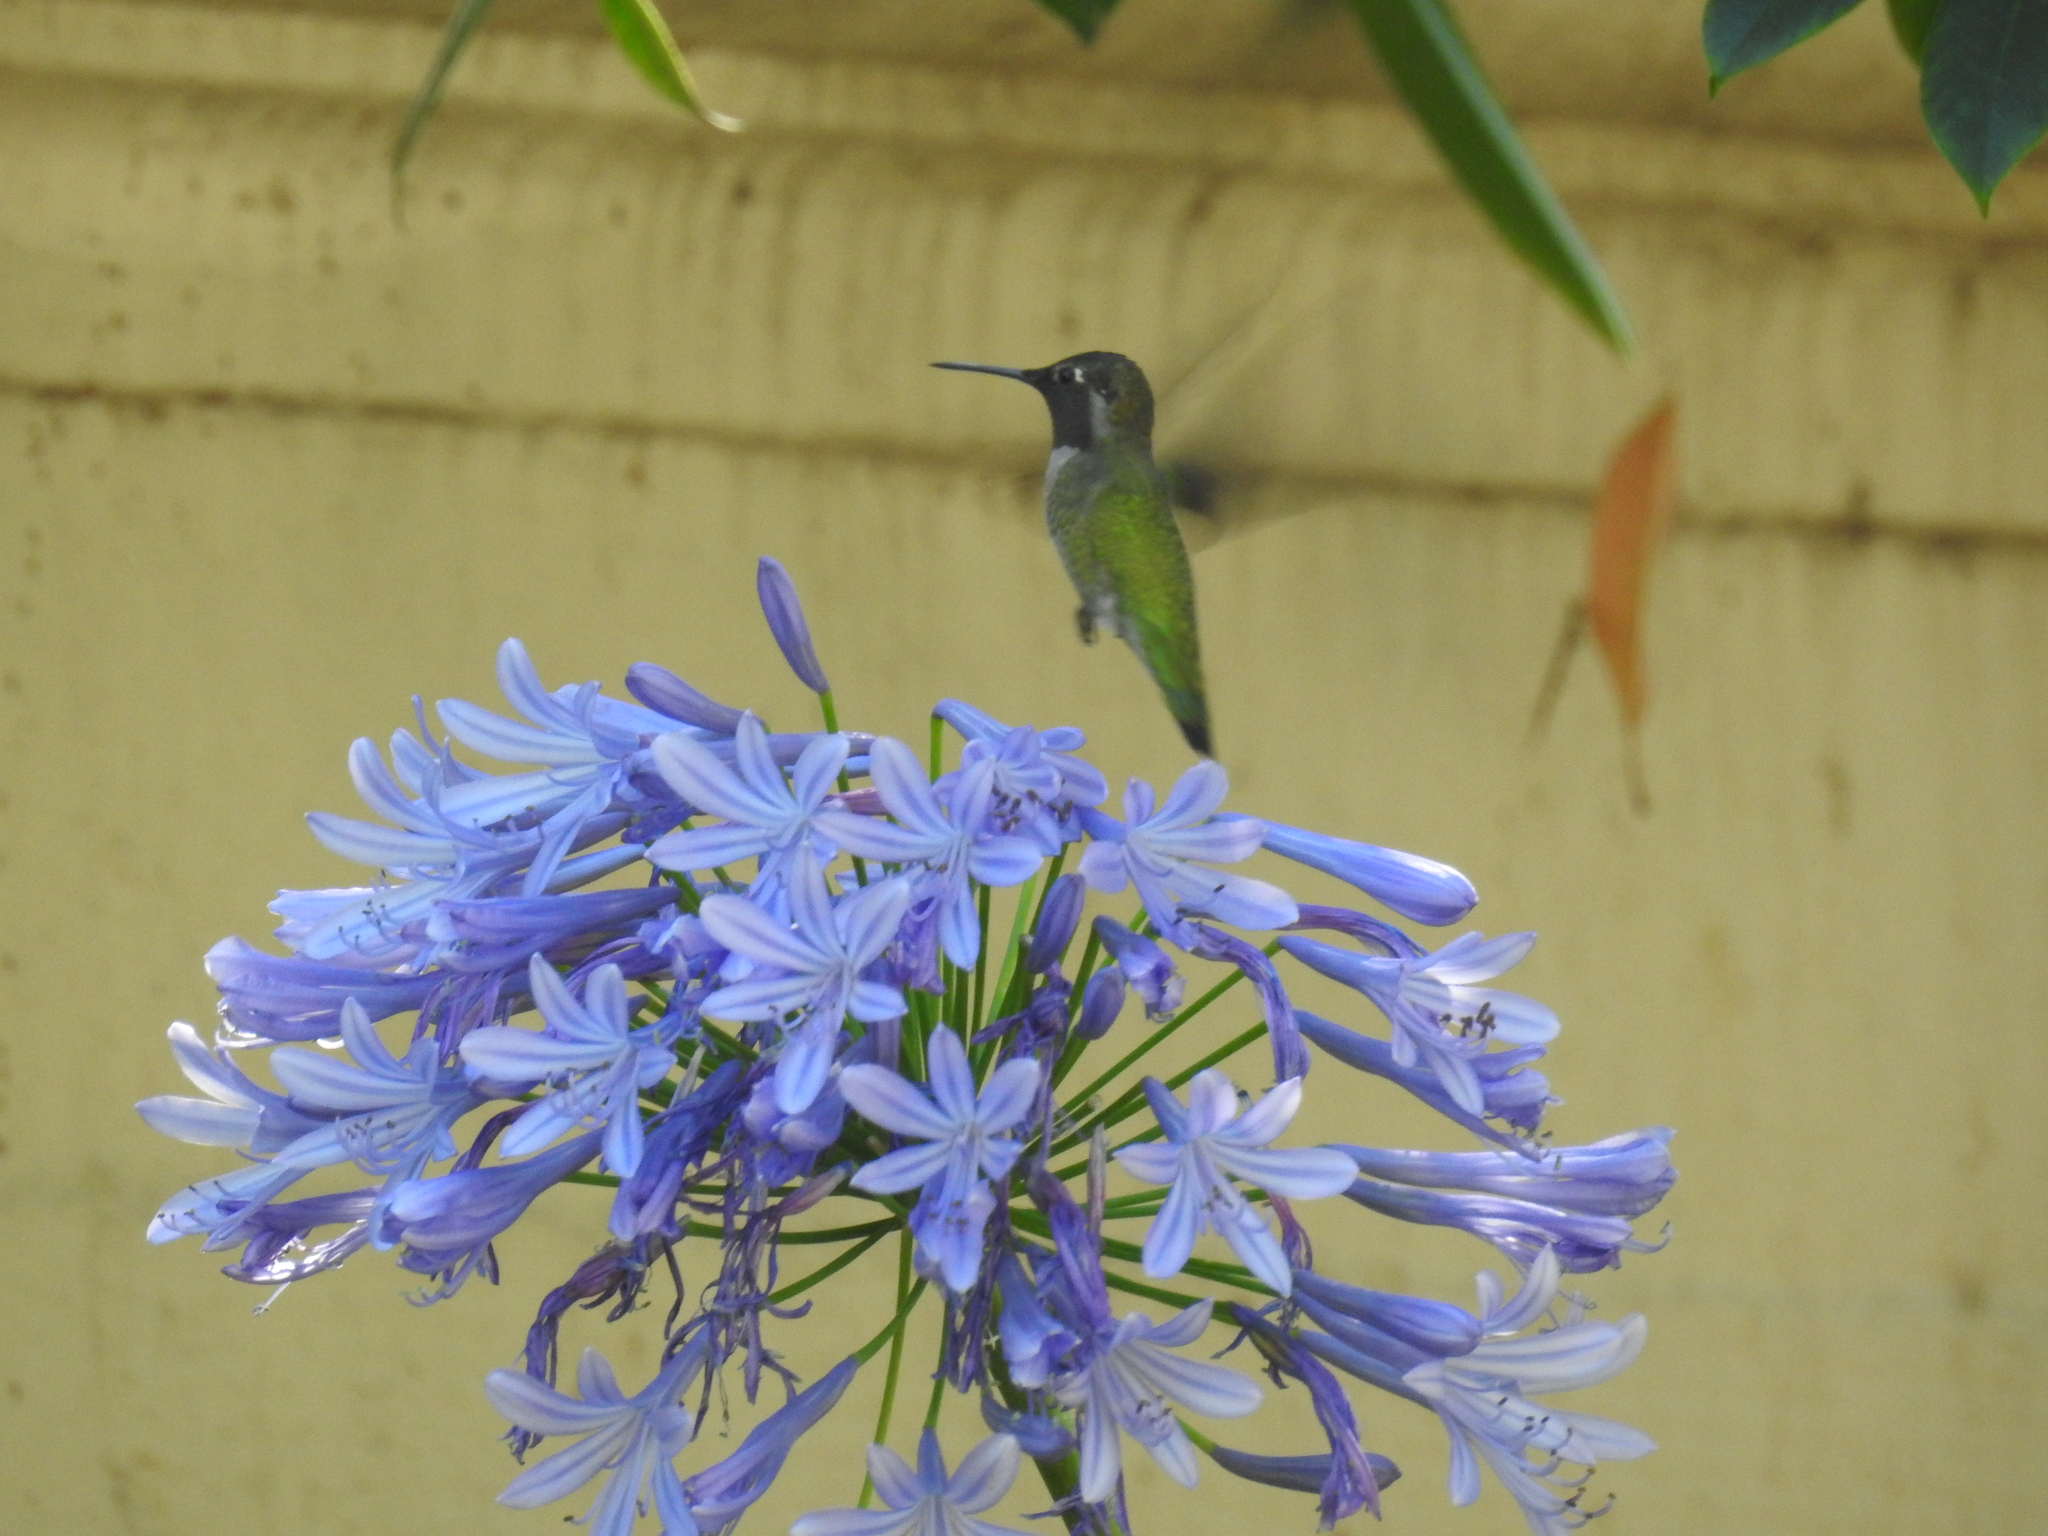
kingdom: Animalia
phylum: Chordata
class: Aves
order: Apodiformes
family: Trochilidae
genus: Calypte
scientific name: Calypte anna
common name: Anna's hummingbird
